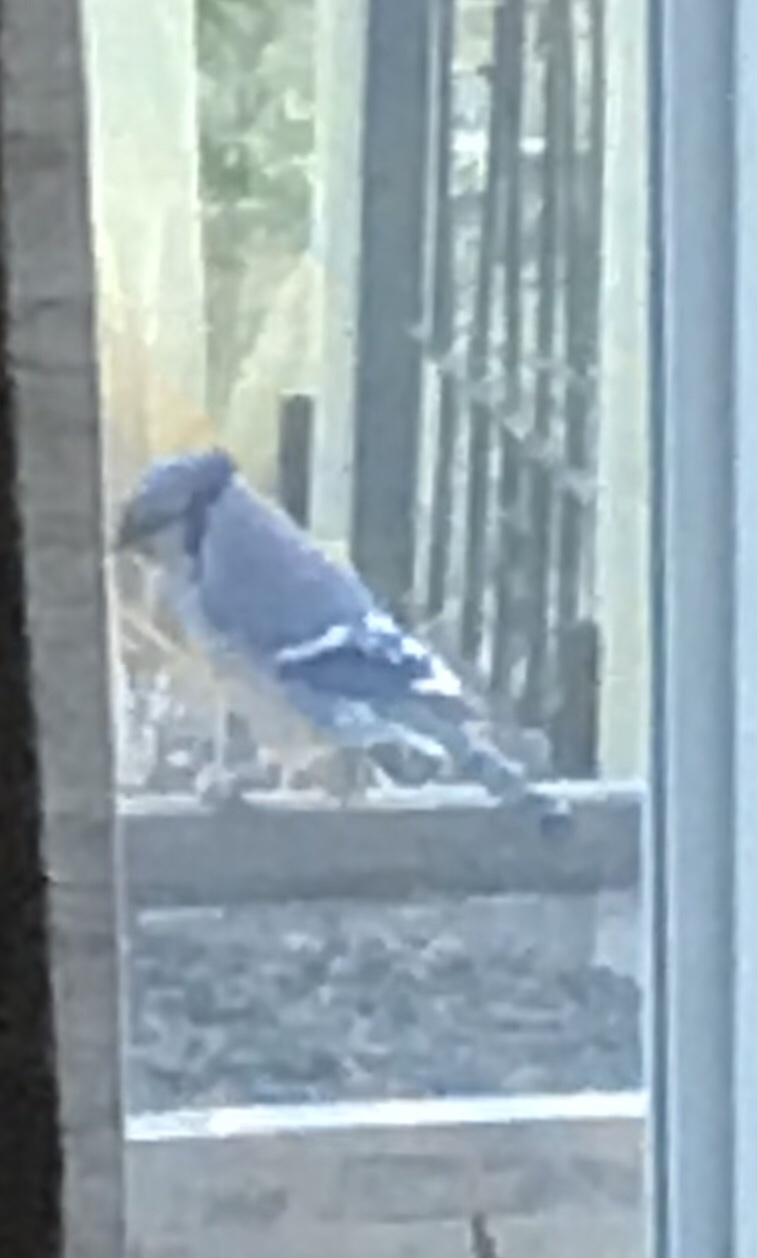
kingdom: Animalia
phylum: Chordata
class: Aves
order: Passeriformes
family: Corvidae
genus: Cyanocitta
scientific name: Cyanocitta cristata
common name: Blue jay
